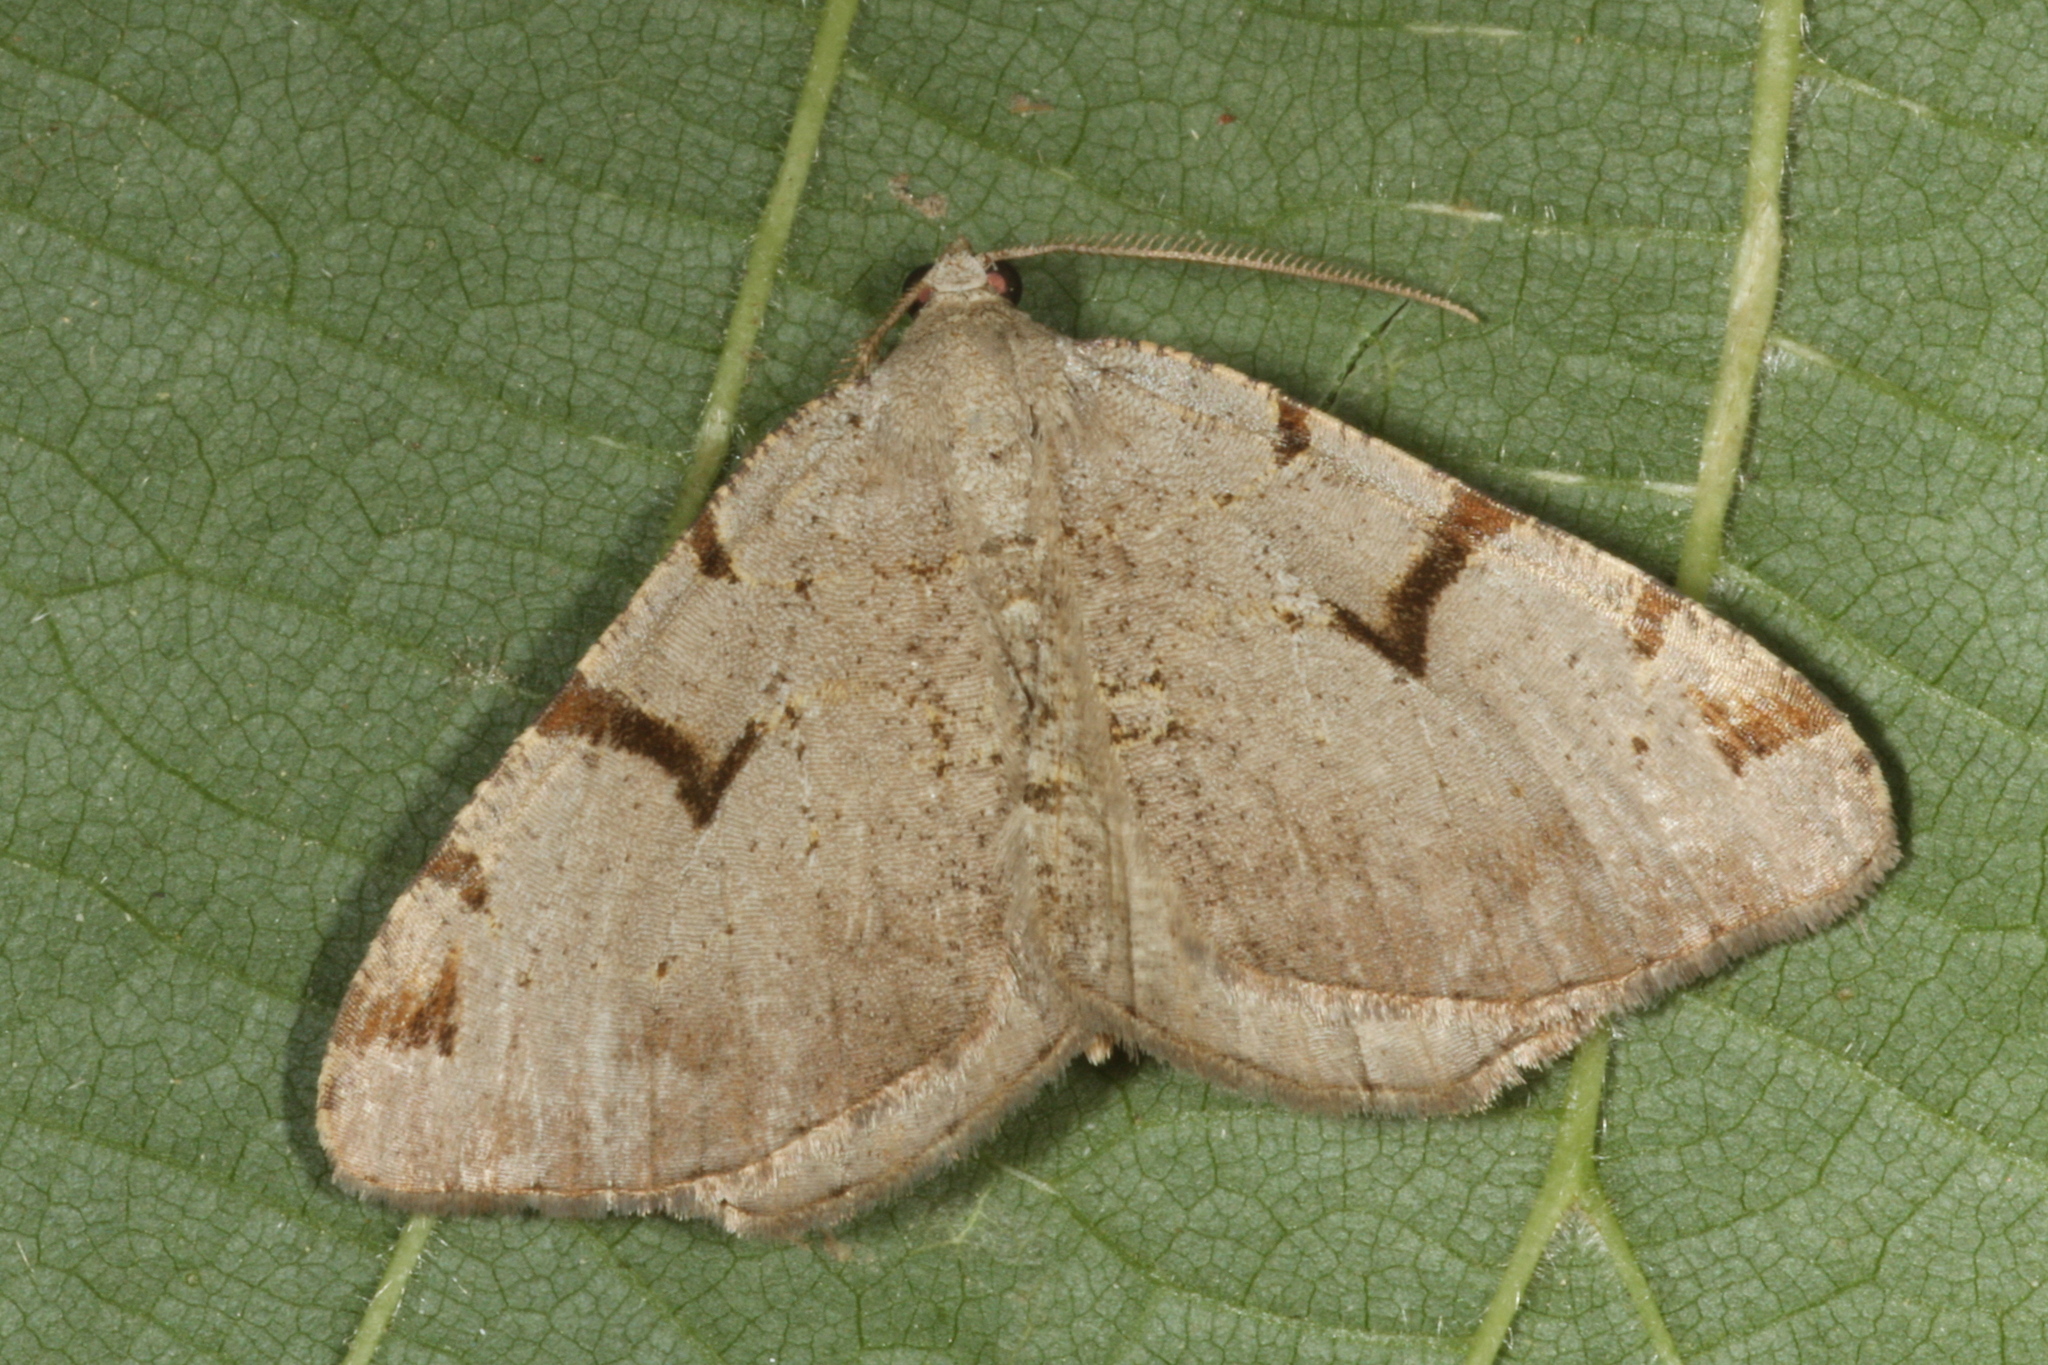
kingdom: Animalia
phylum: Arthropoda
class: Insecta
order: Lepidoptera
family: Geometridae
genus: Macaria
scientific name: Macaria wauaria
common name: V-moth
